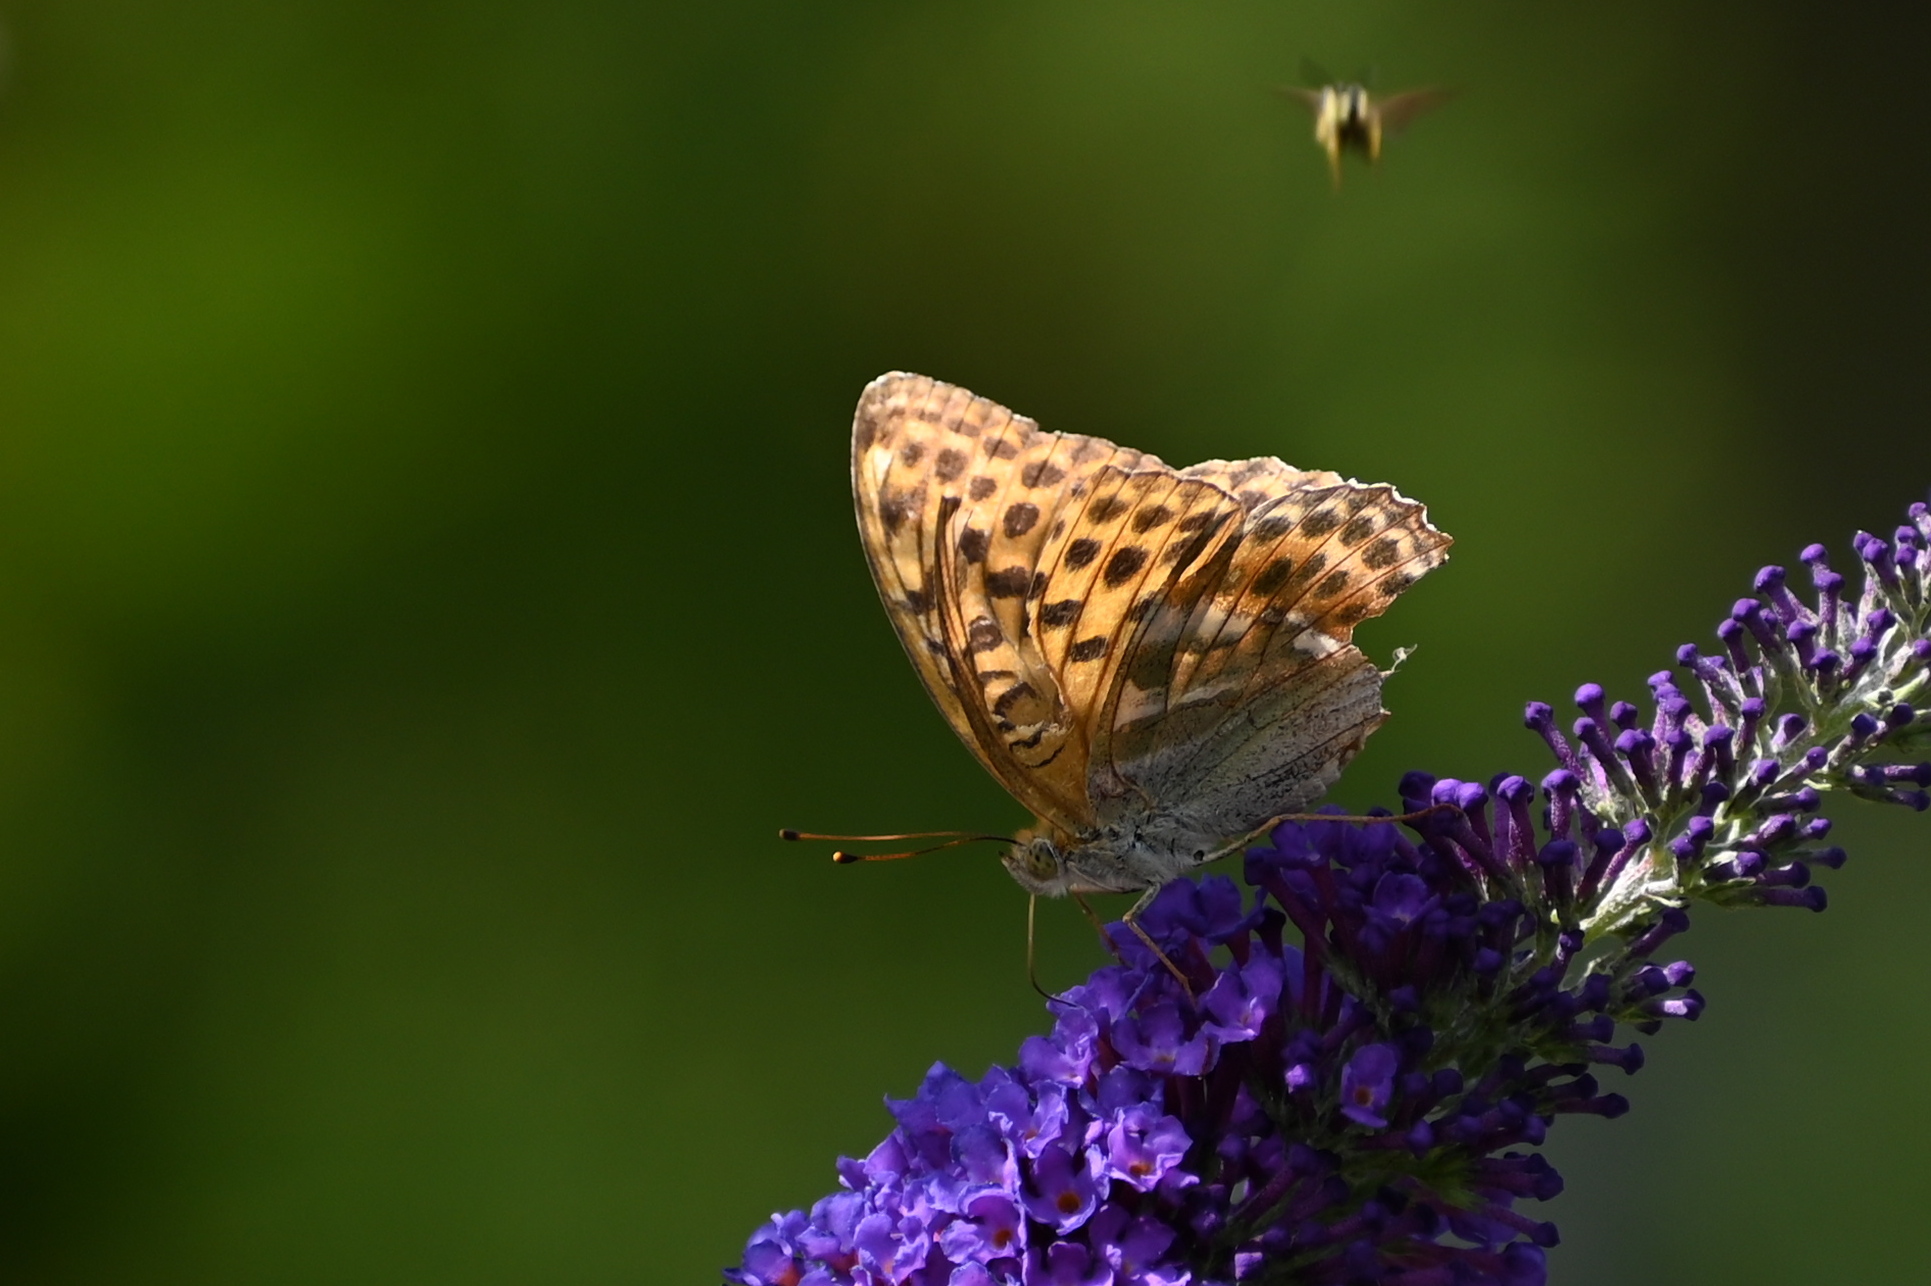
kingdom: Animalia
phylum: Arthropoda
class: Insecta
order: Lepidoptera
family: Nymphalidae
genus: Argynnis
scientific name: Argynnis paphia
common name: Silver-washed fritillary
